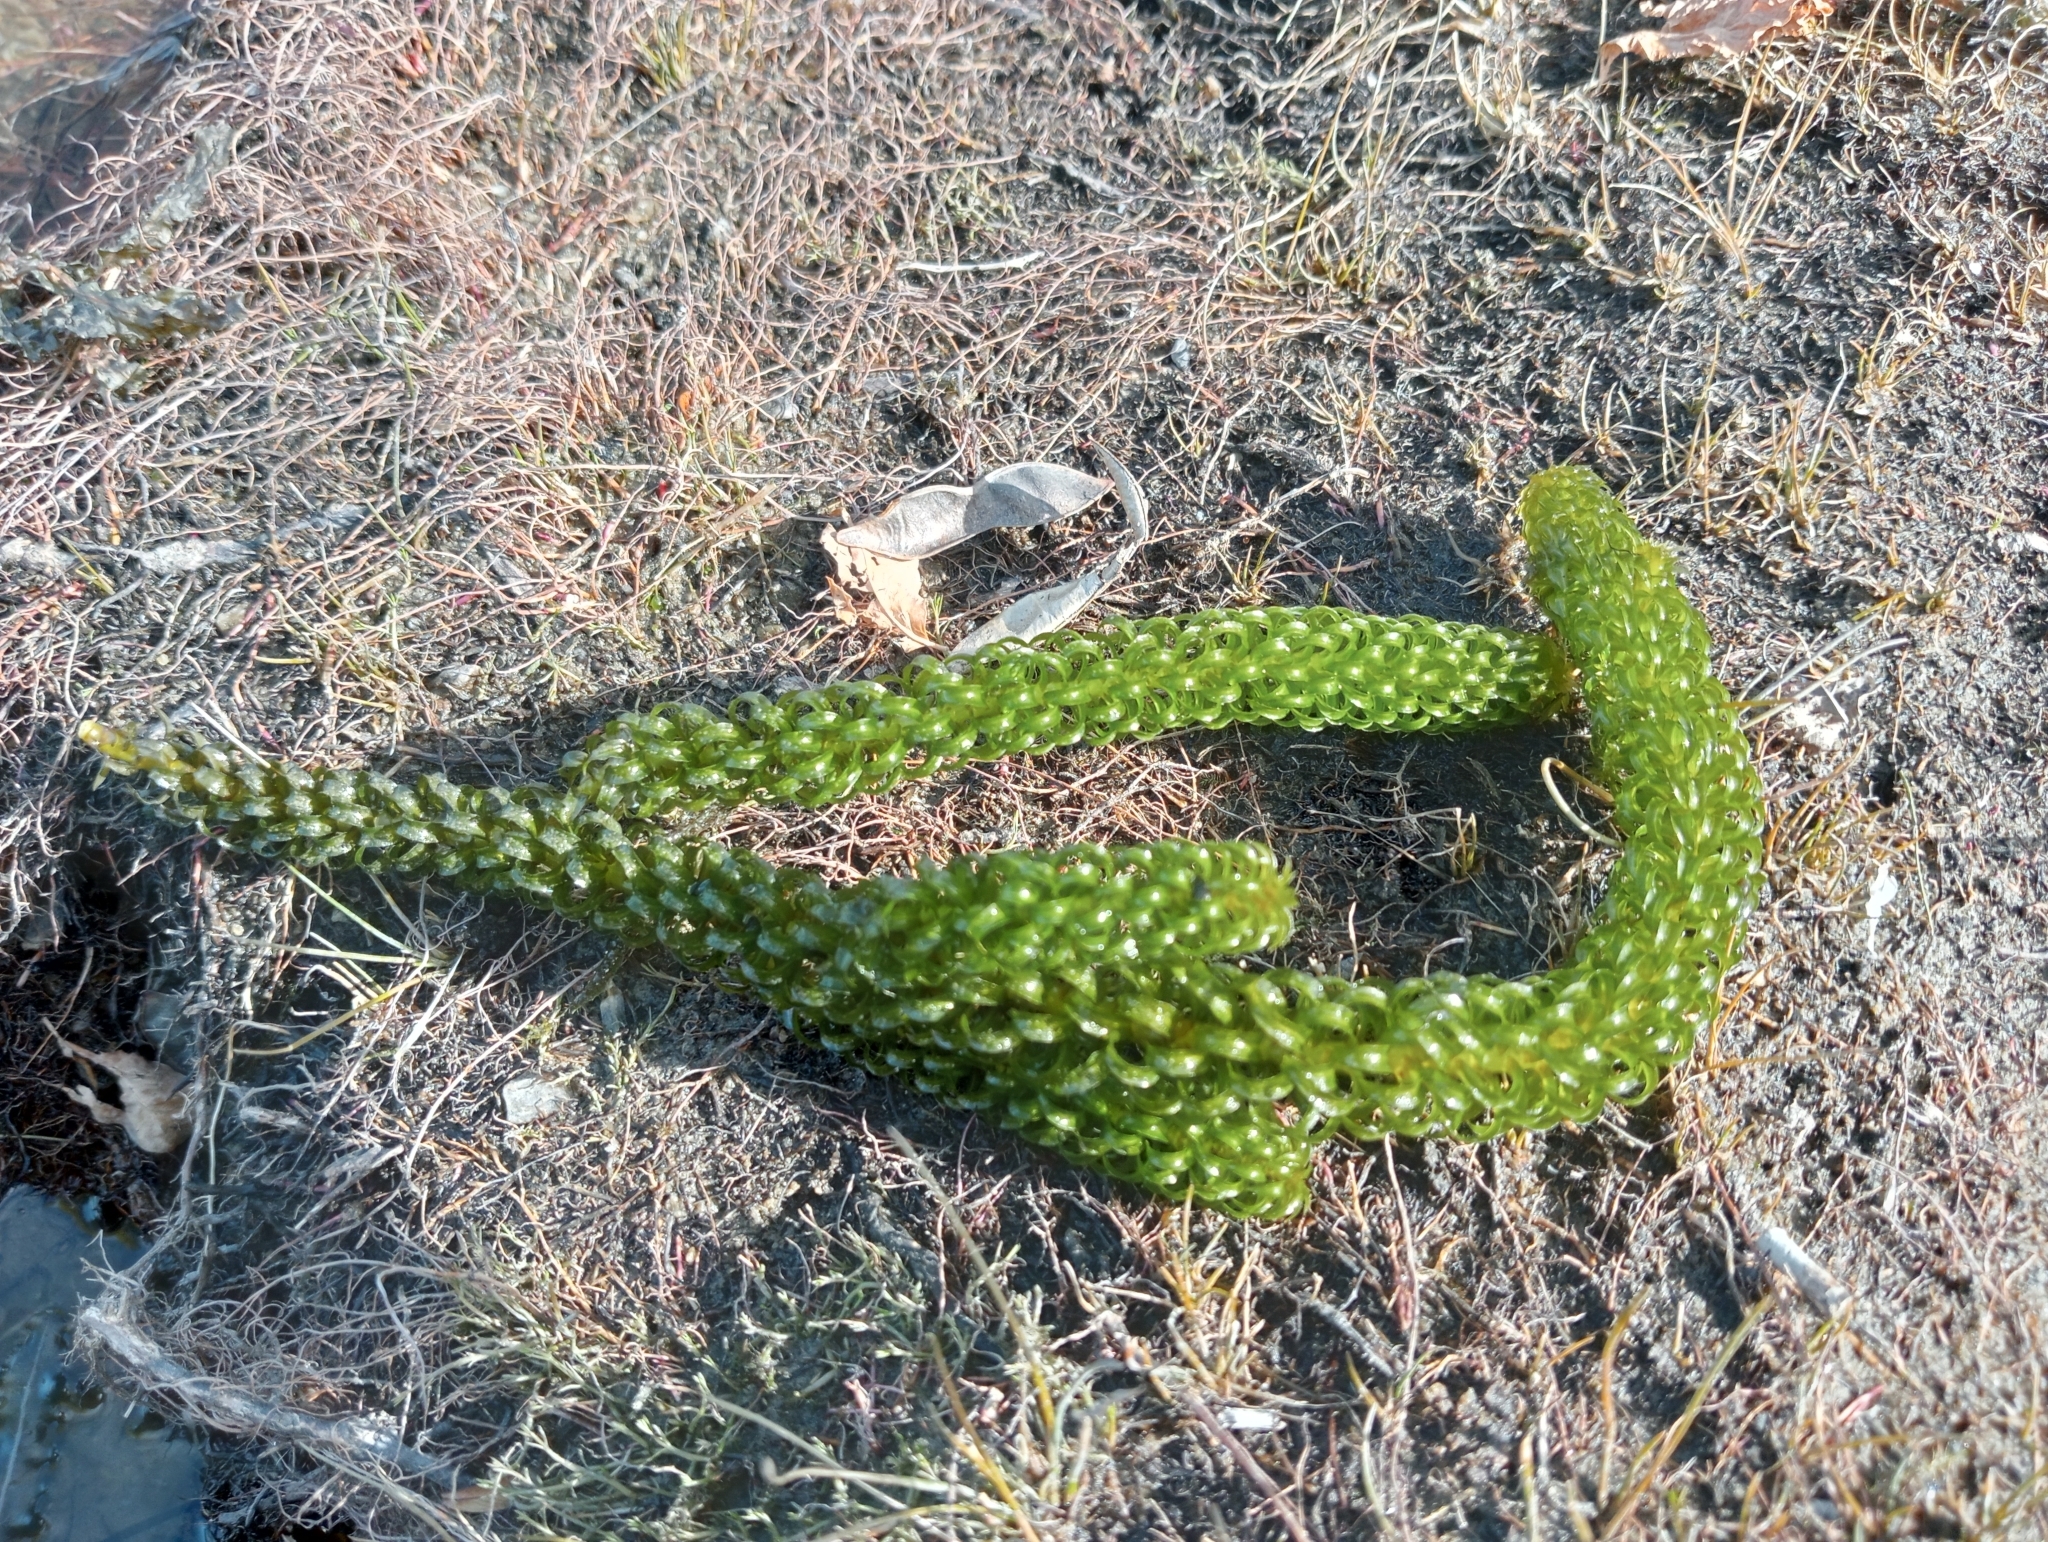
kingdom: Plantae
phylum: Tracheophyta
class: Liliopsida
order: Alismatales
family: Hydrocharitaceae
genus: Lagarosiphon
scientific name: Lagarosiphon major
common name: Curly waterweed
